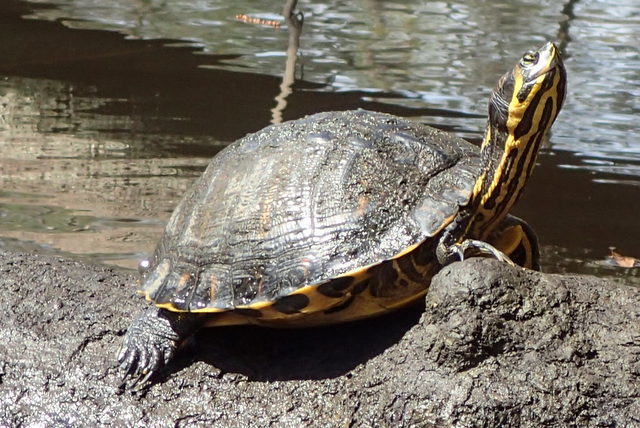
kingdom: Animalia
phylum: Chordata
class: Testudines
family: Emydidae
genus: Trachemys
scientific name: Trachemys scripta
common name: Slider
